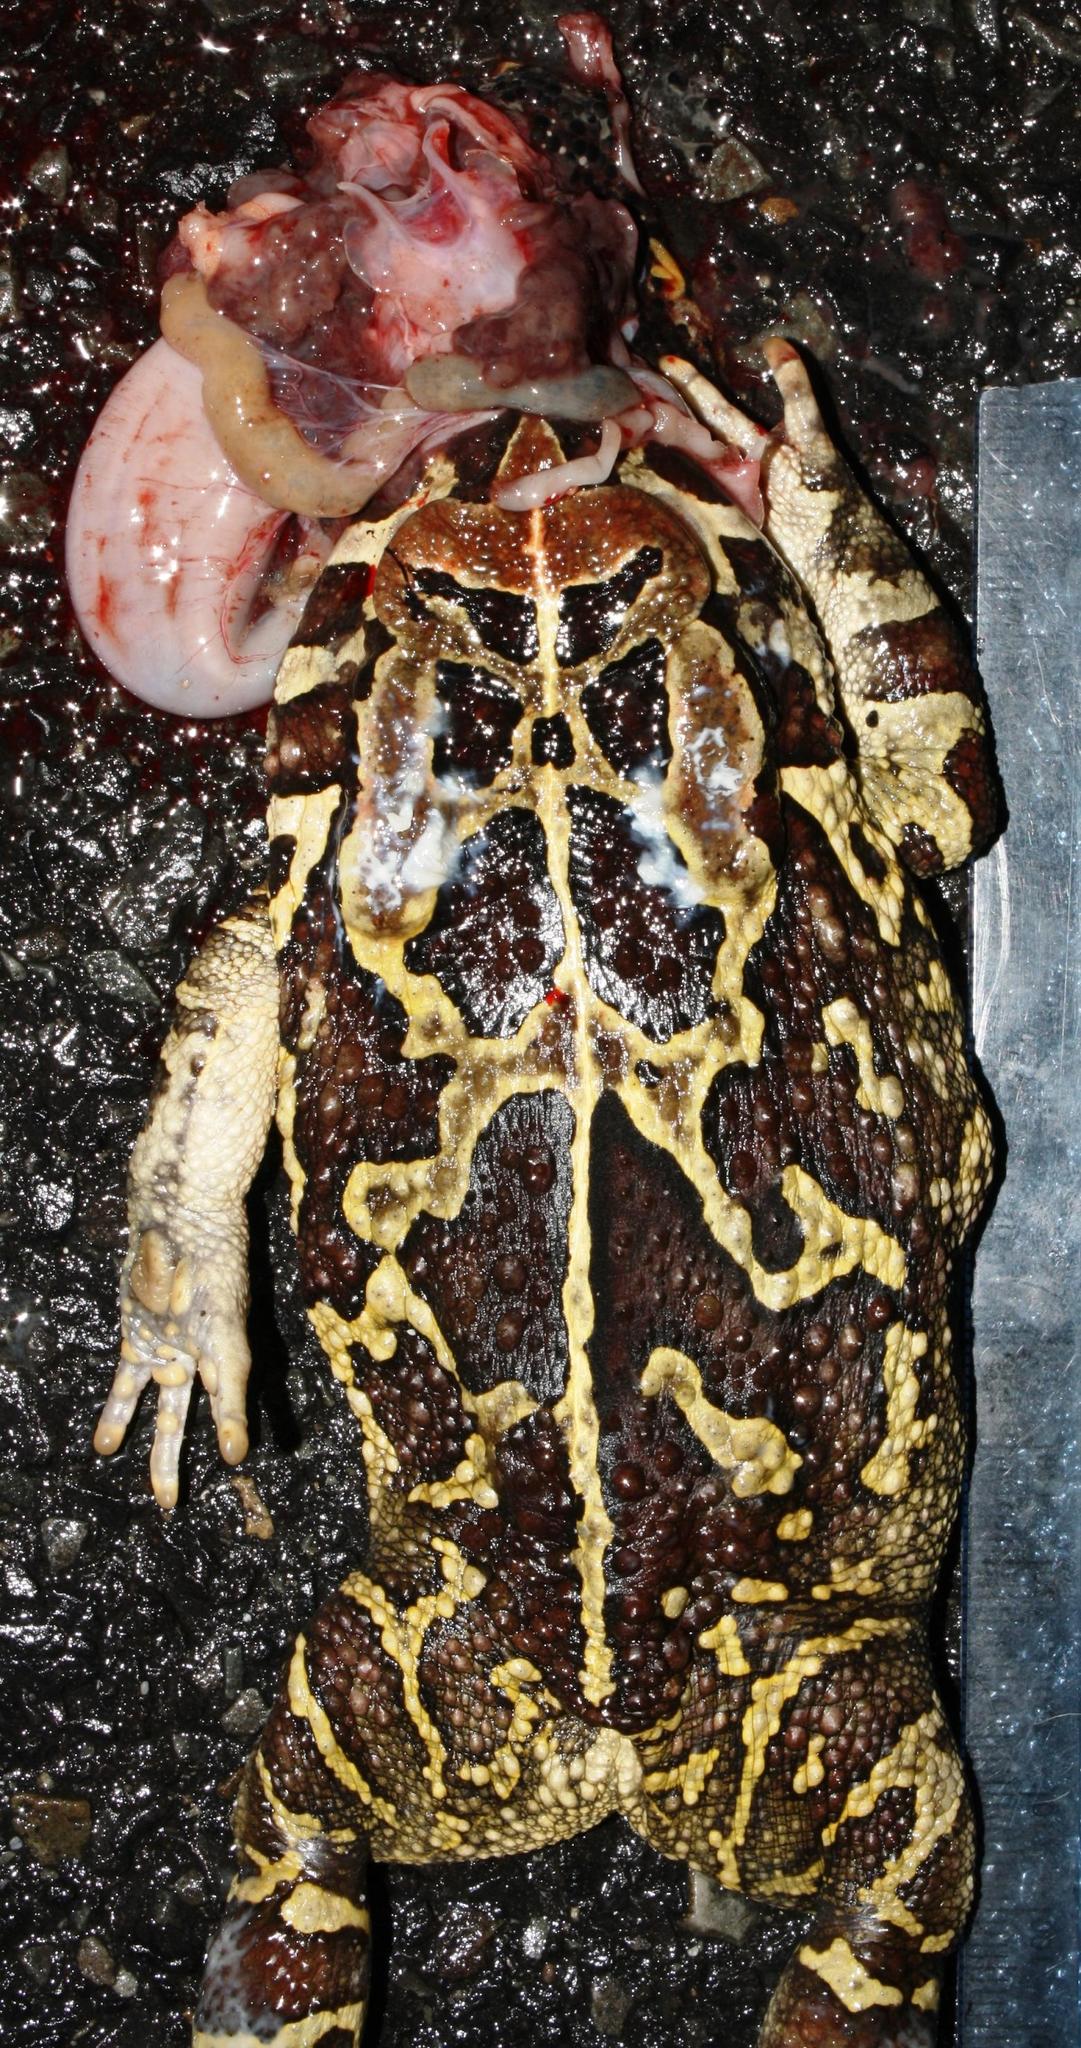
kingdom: Animalia
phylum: Chordata
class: Amphibia
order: Anura
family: Bufonidae
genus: Sclerophrys
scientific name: Sclerophrys pantherina
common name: Panther toad
